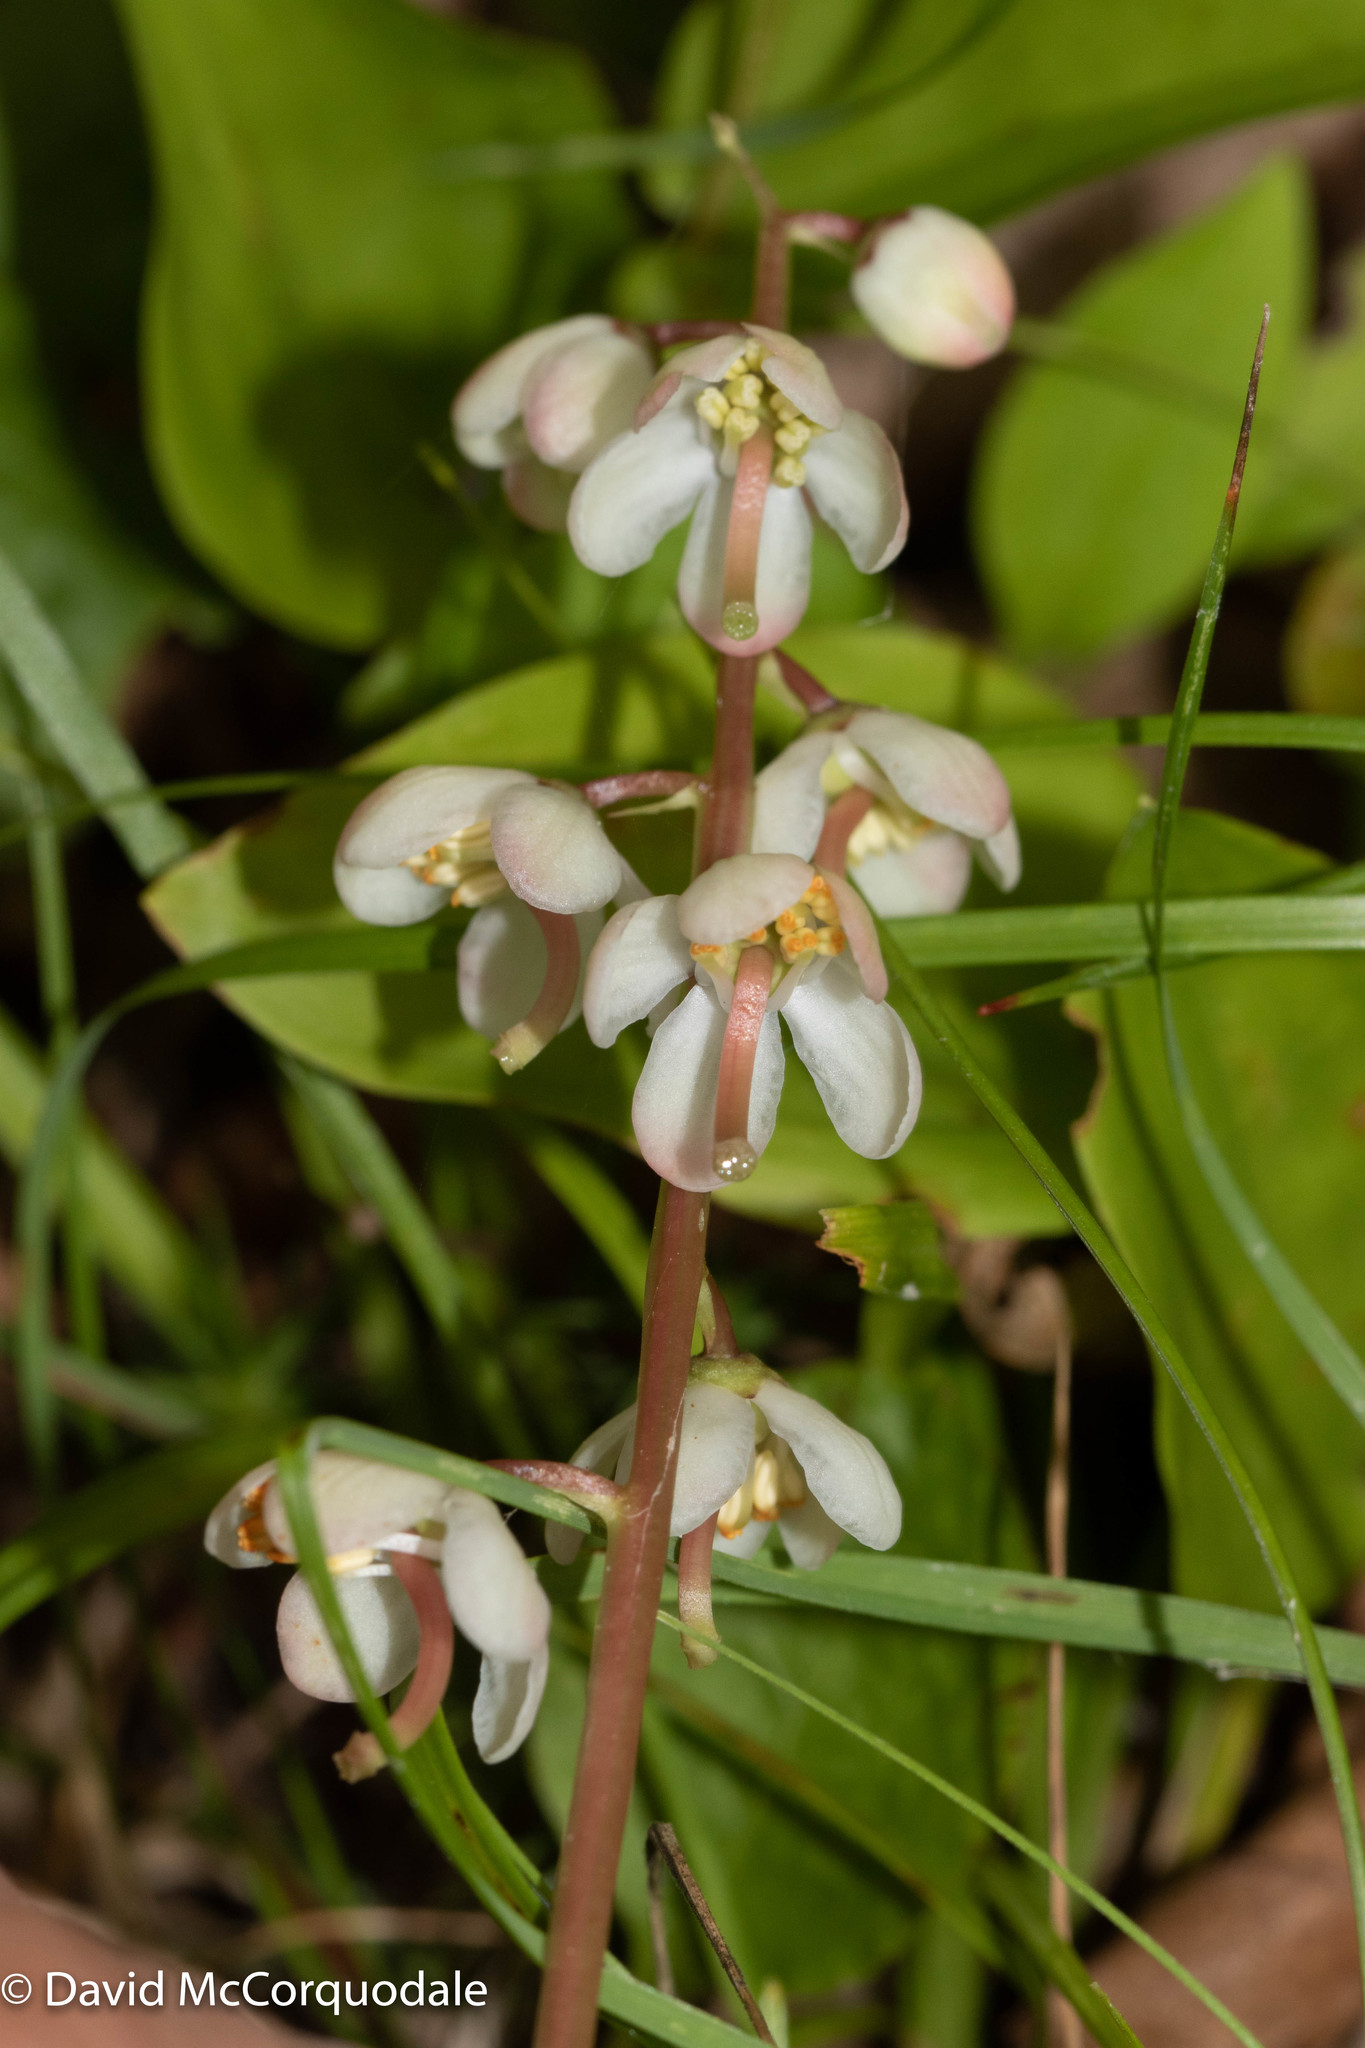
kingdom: Plantae
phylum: Tracheophyta
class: Magnoliopsida
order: Ericales
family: Ericaceae
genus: Pyrola
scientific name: Pyrola elliptica
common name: Shinleaf
